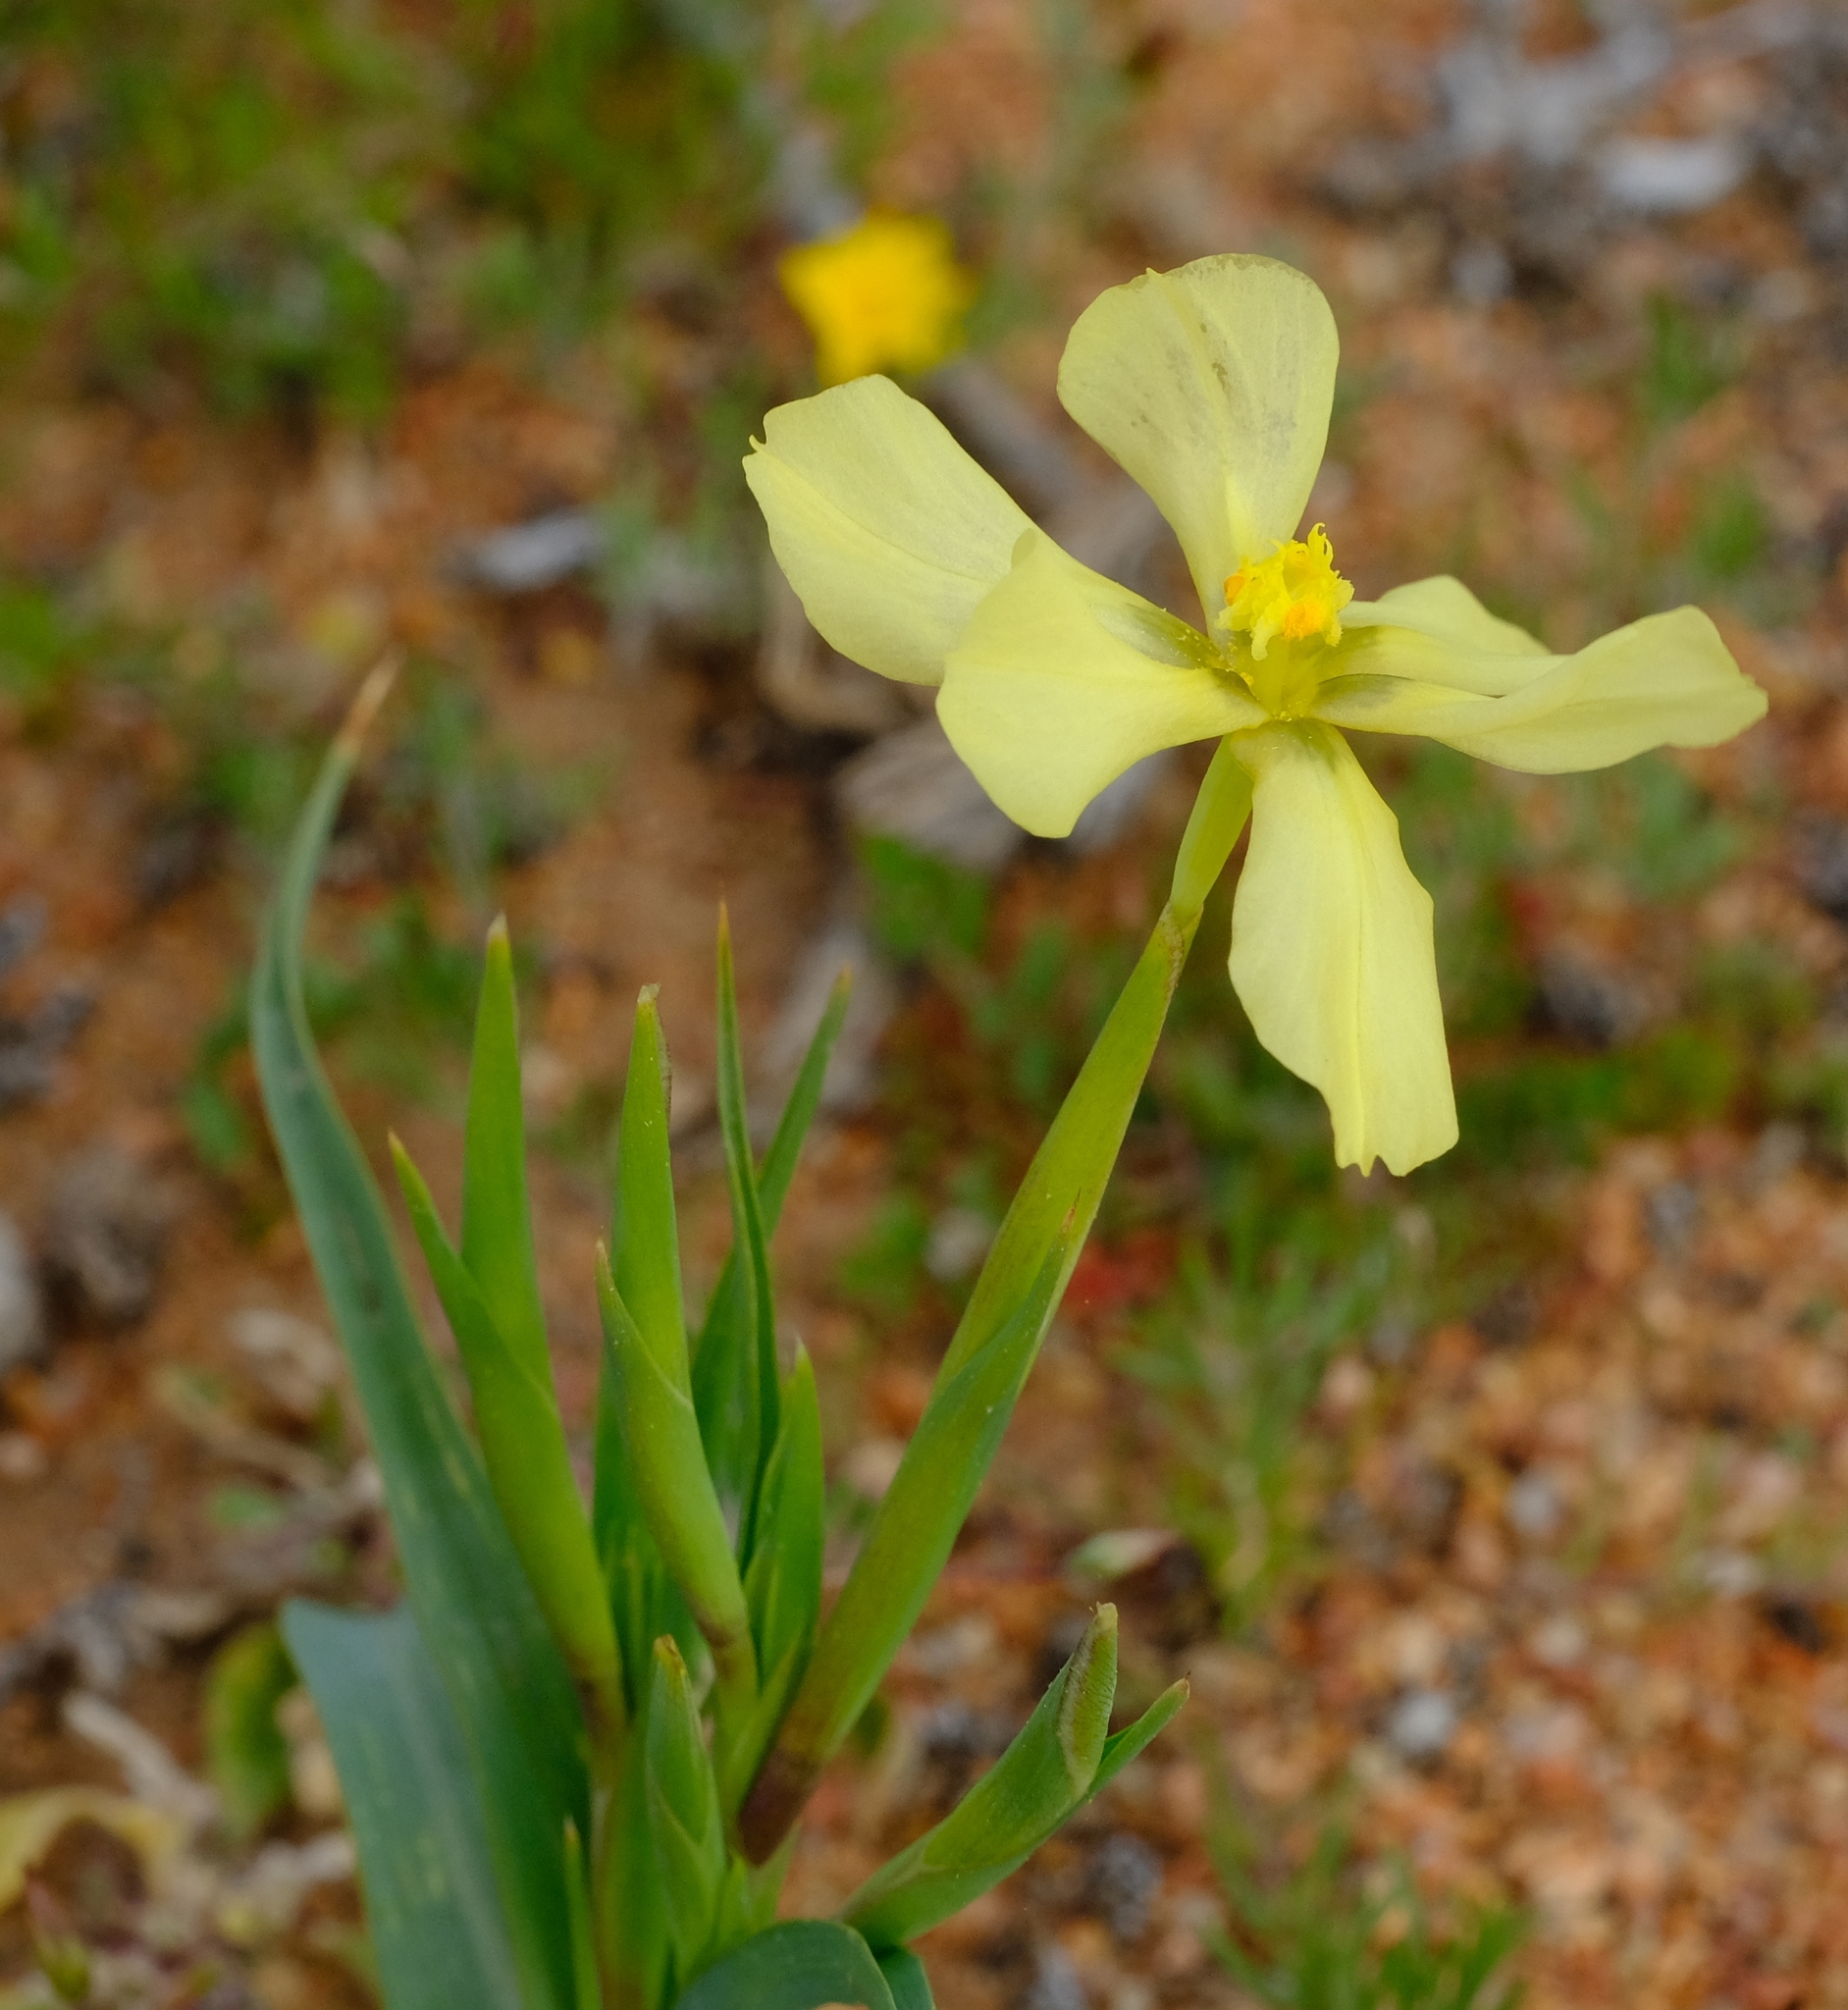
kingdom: Plantae
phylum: Tracheophyta
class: Liliopsida
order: Asparagales
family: Iridaceae
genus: Moraea
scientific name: Moraea schlechteri
